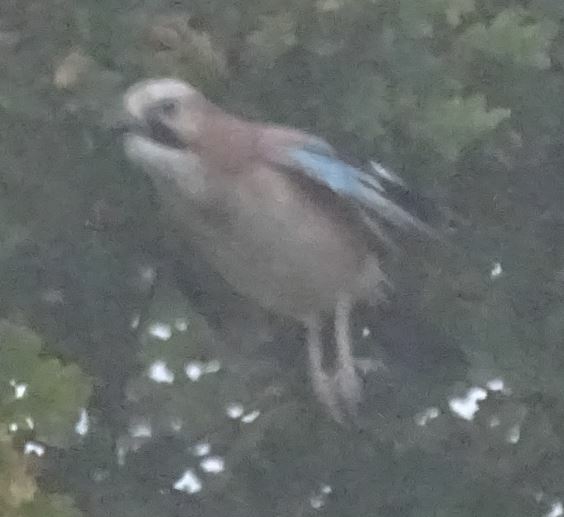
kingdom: Animalia
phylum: Chordata
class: Aves
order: Passeriformes
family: Corvidae
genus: Garrulus
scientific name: Garrulus glandarius
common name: Eurasian jay
